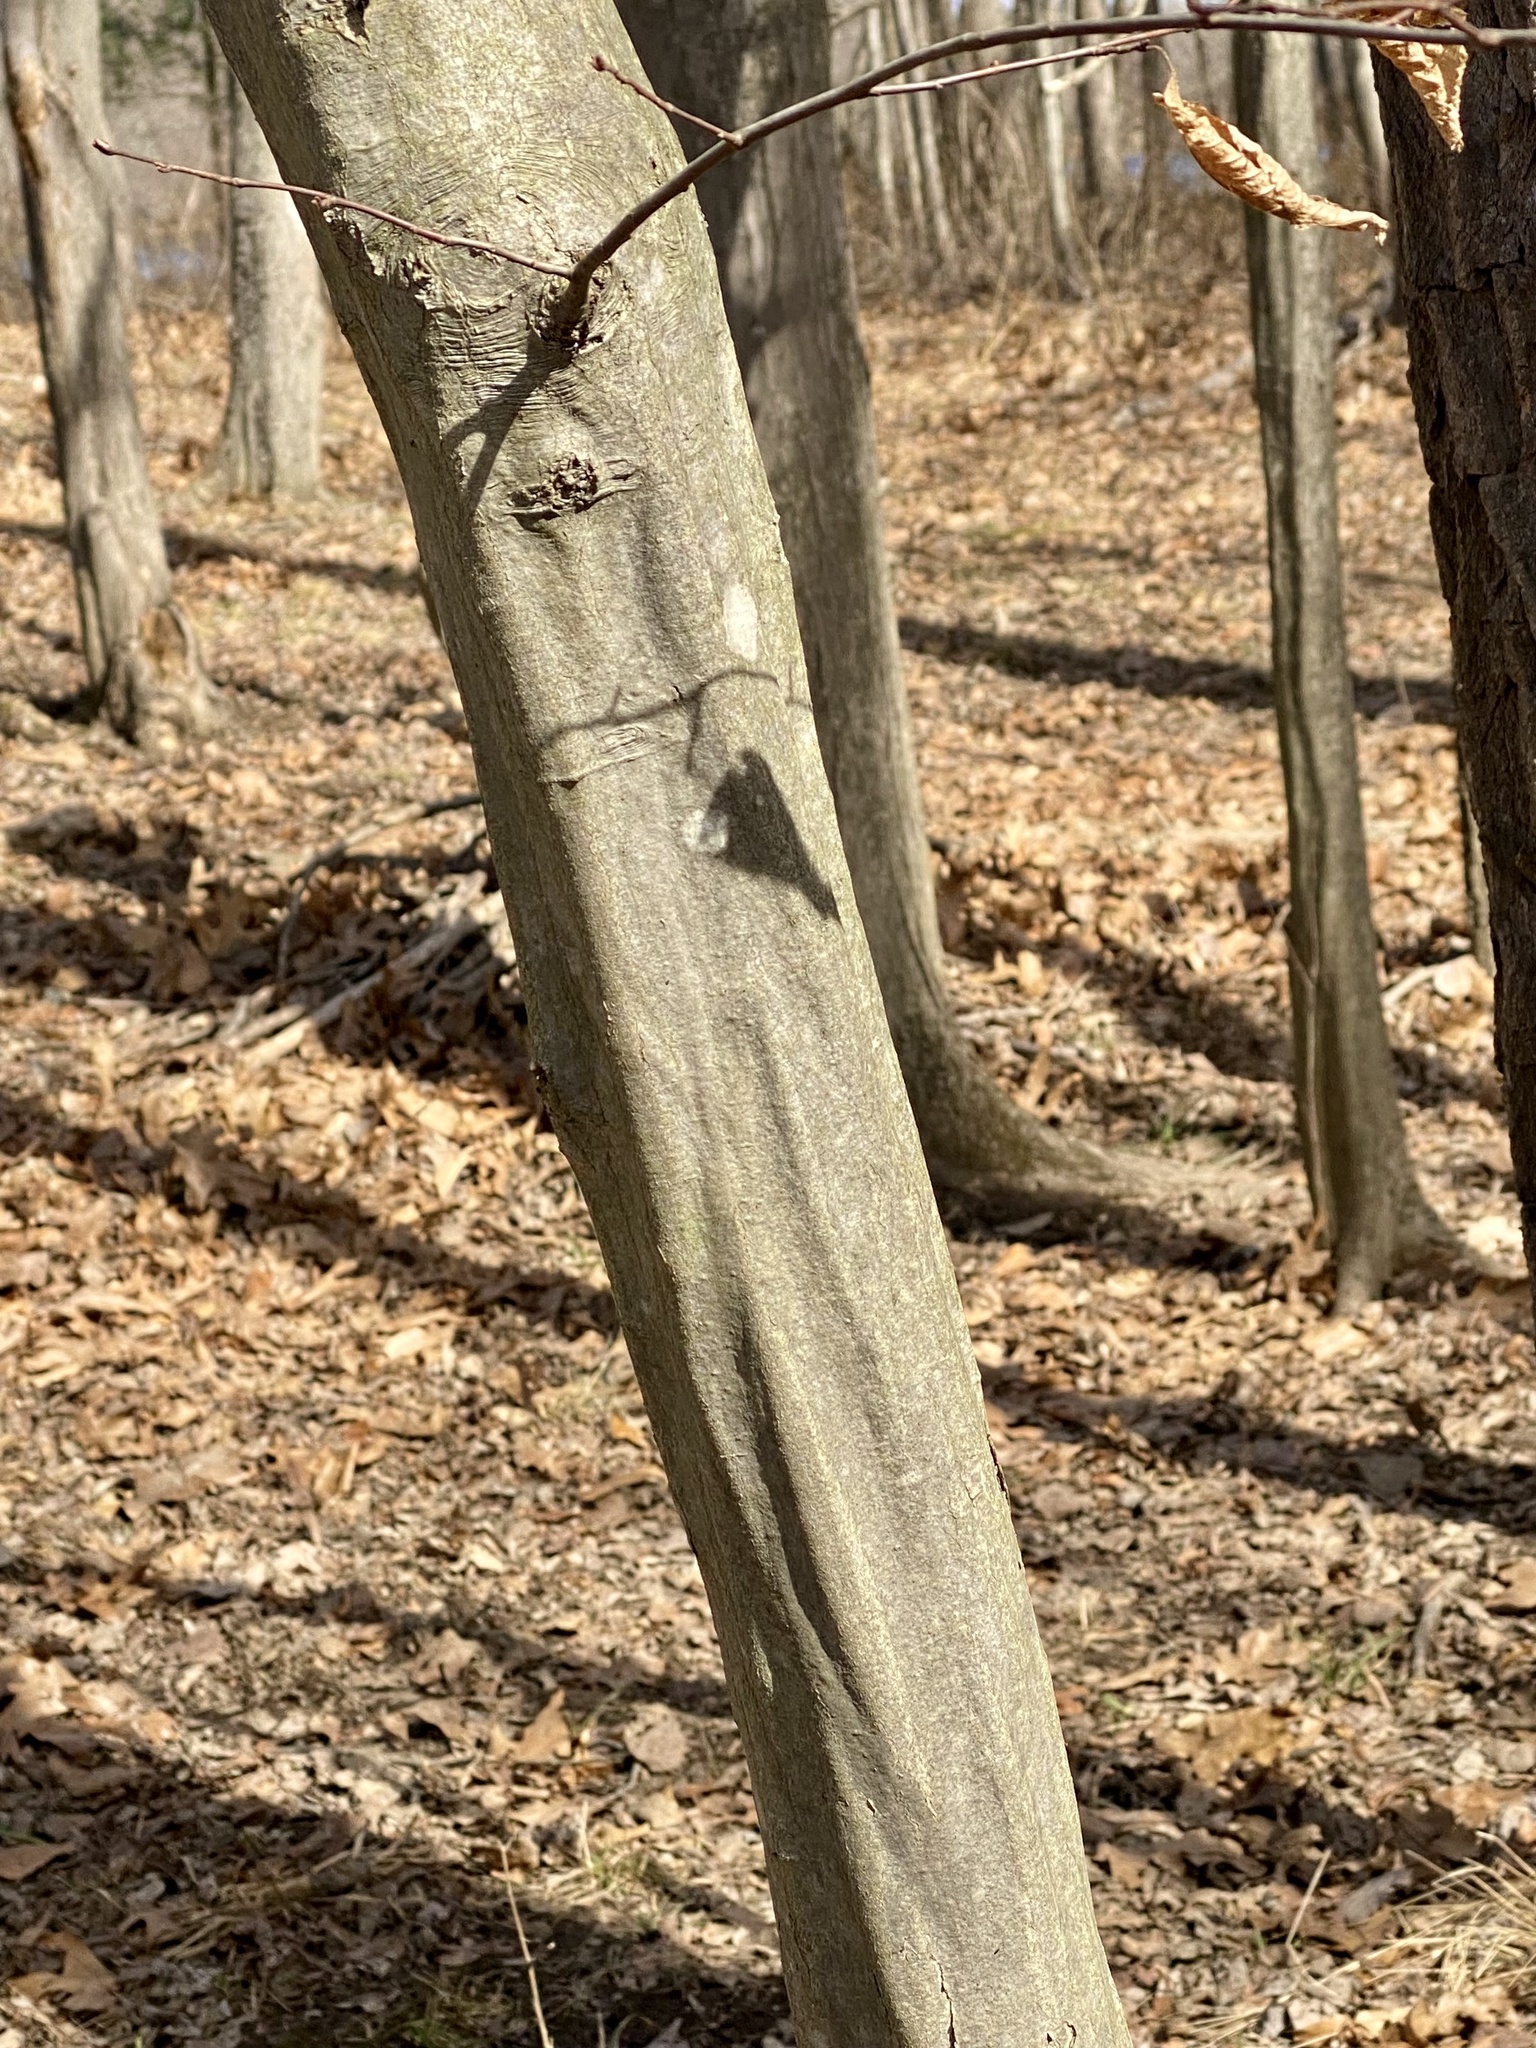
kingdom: Plantae
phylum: Tracheophyta
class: Magnoliopsida
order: Fagales
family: Betulaceae
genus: Carpinus
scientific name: Carpinus caroliniana
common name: American hornbeam
